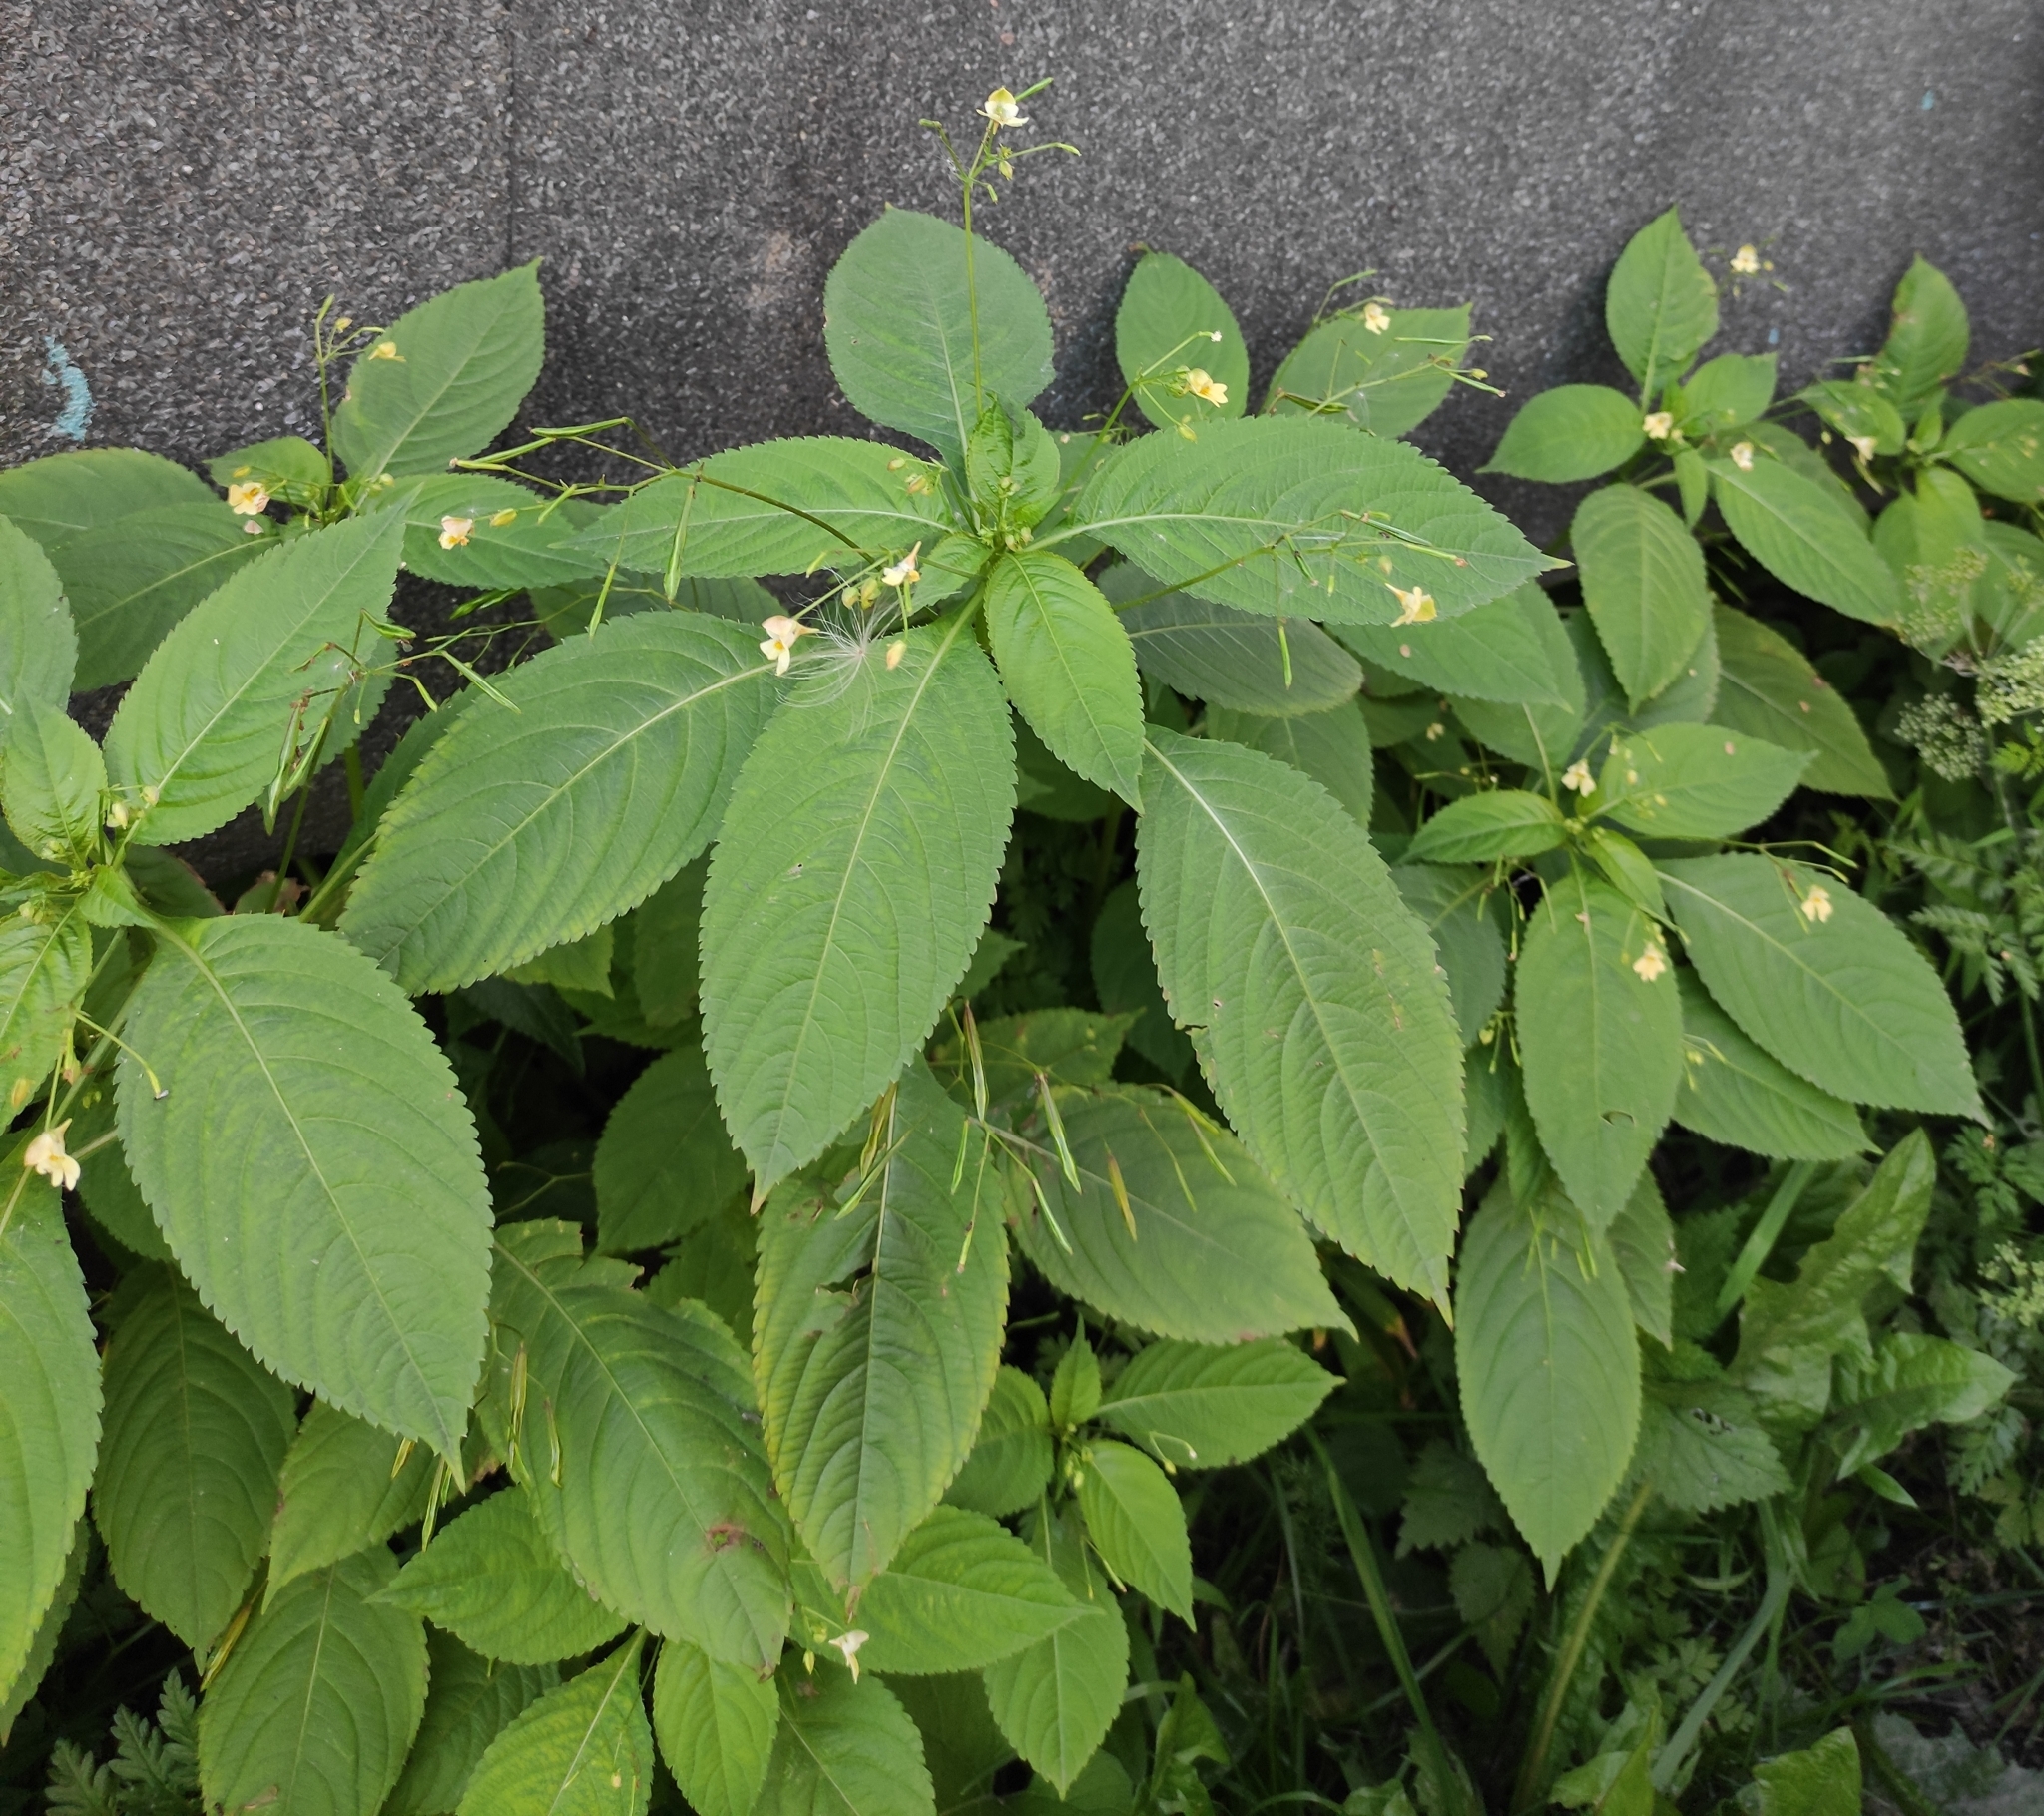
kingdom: Plantae
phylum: Tracheophyta
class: Magnoliopsida
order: Ericales
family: Balsaminaceae
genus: Impatiens
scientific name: Impatiens parviflora
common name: Small balsam
